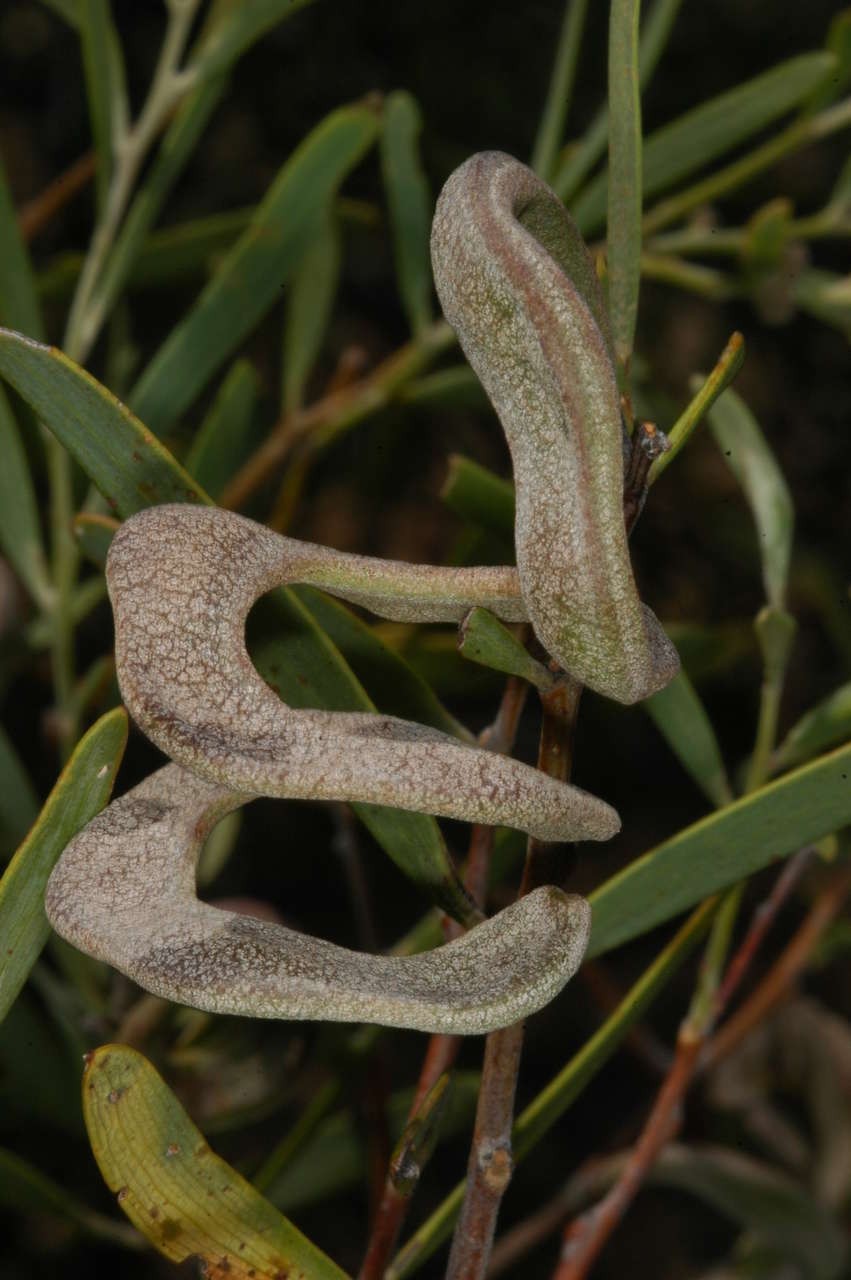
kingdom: Plantae
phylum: Tracheophyta
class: Magnoliopsida
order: Fabales
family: Fabaceae
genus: Acacia
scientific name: Acacia oswaldii
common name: Umbrella wattle
